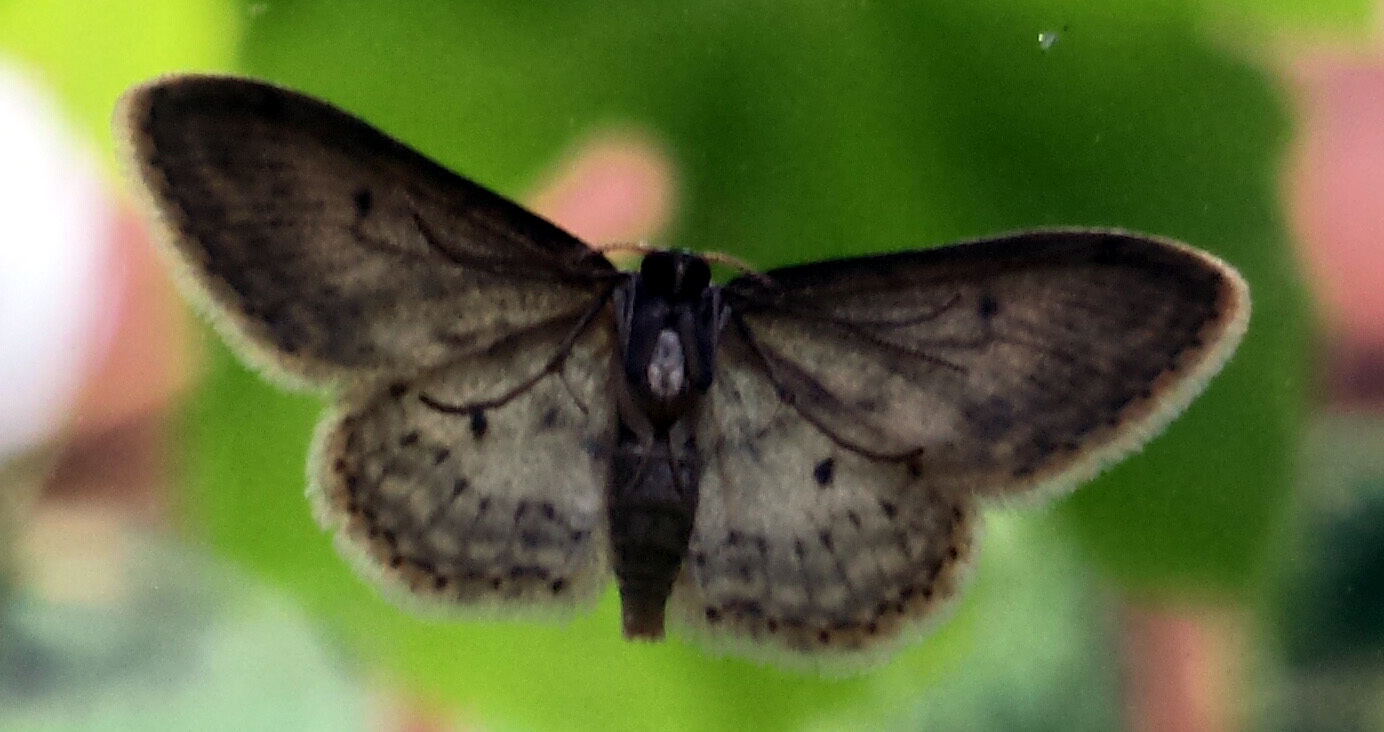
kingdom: Animalia
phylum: Arthropoda
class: Insecta
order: Lepidoptera
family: Geometridae
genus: Idaea
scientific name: Idaea seriata
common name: Small dusty wave
